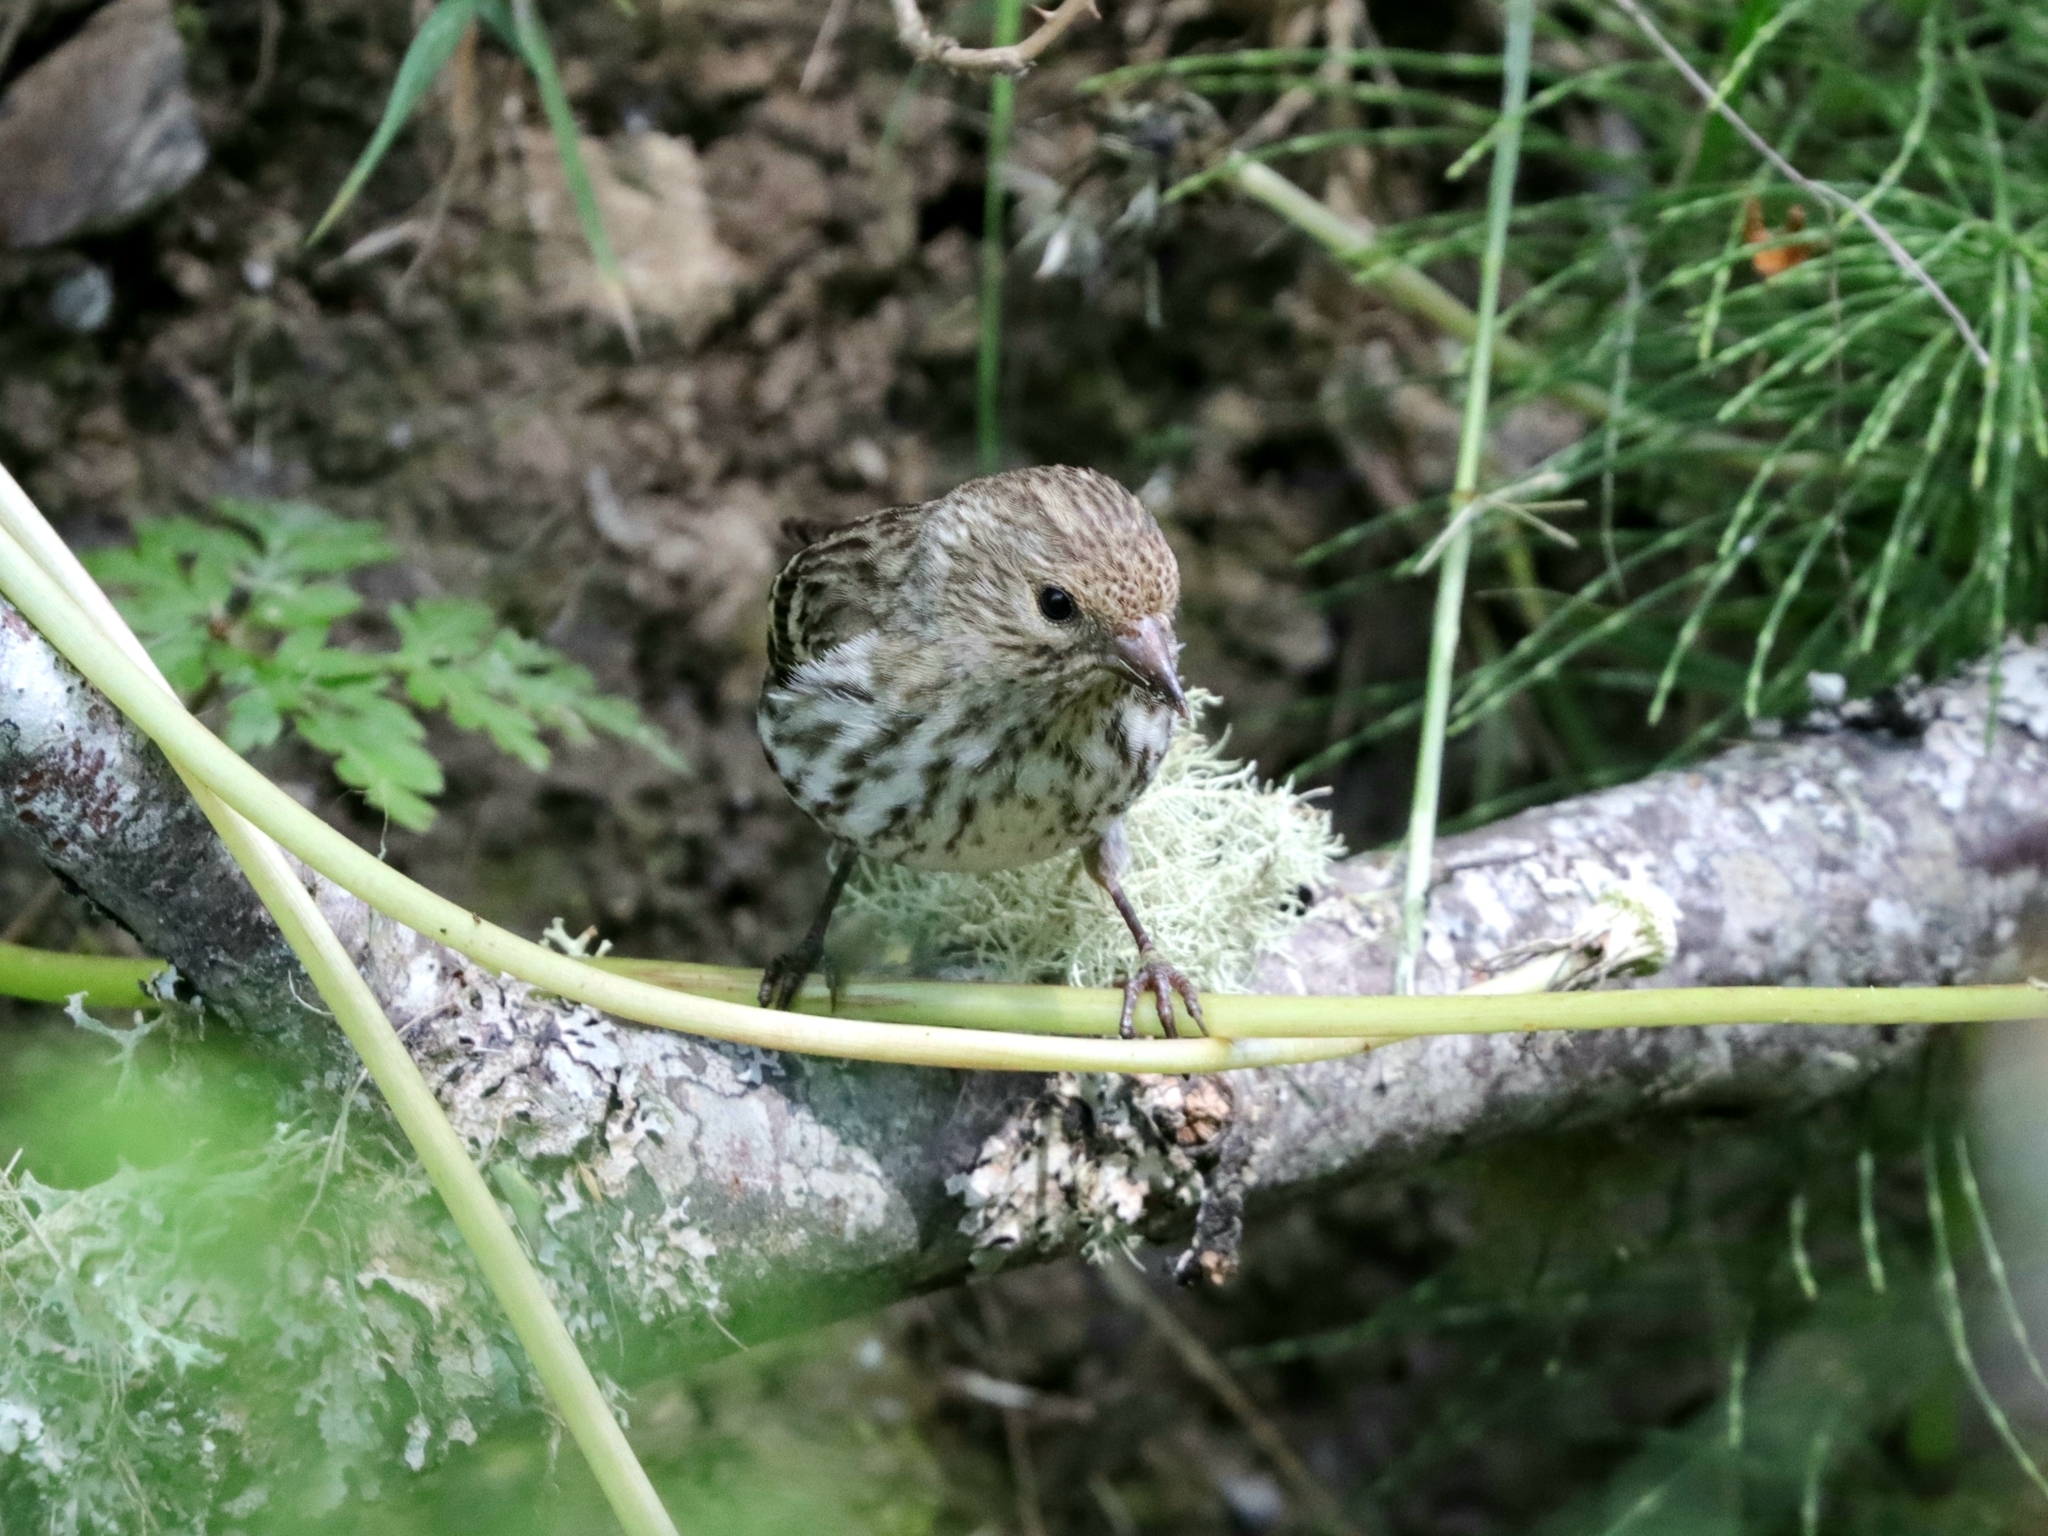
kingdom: Animalia
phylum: Chordata
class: Aves
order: Passeriformes
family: Fringillidae
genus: Spinus
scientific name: Spinus pinus
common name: Pine siskin
